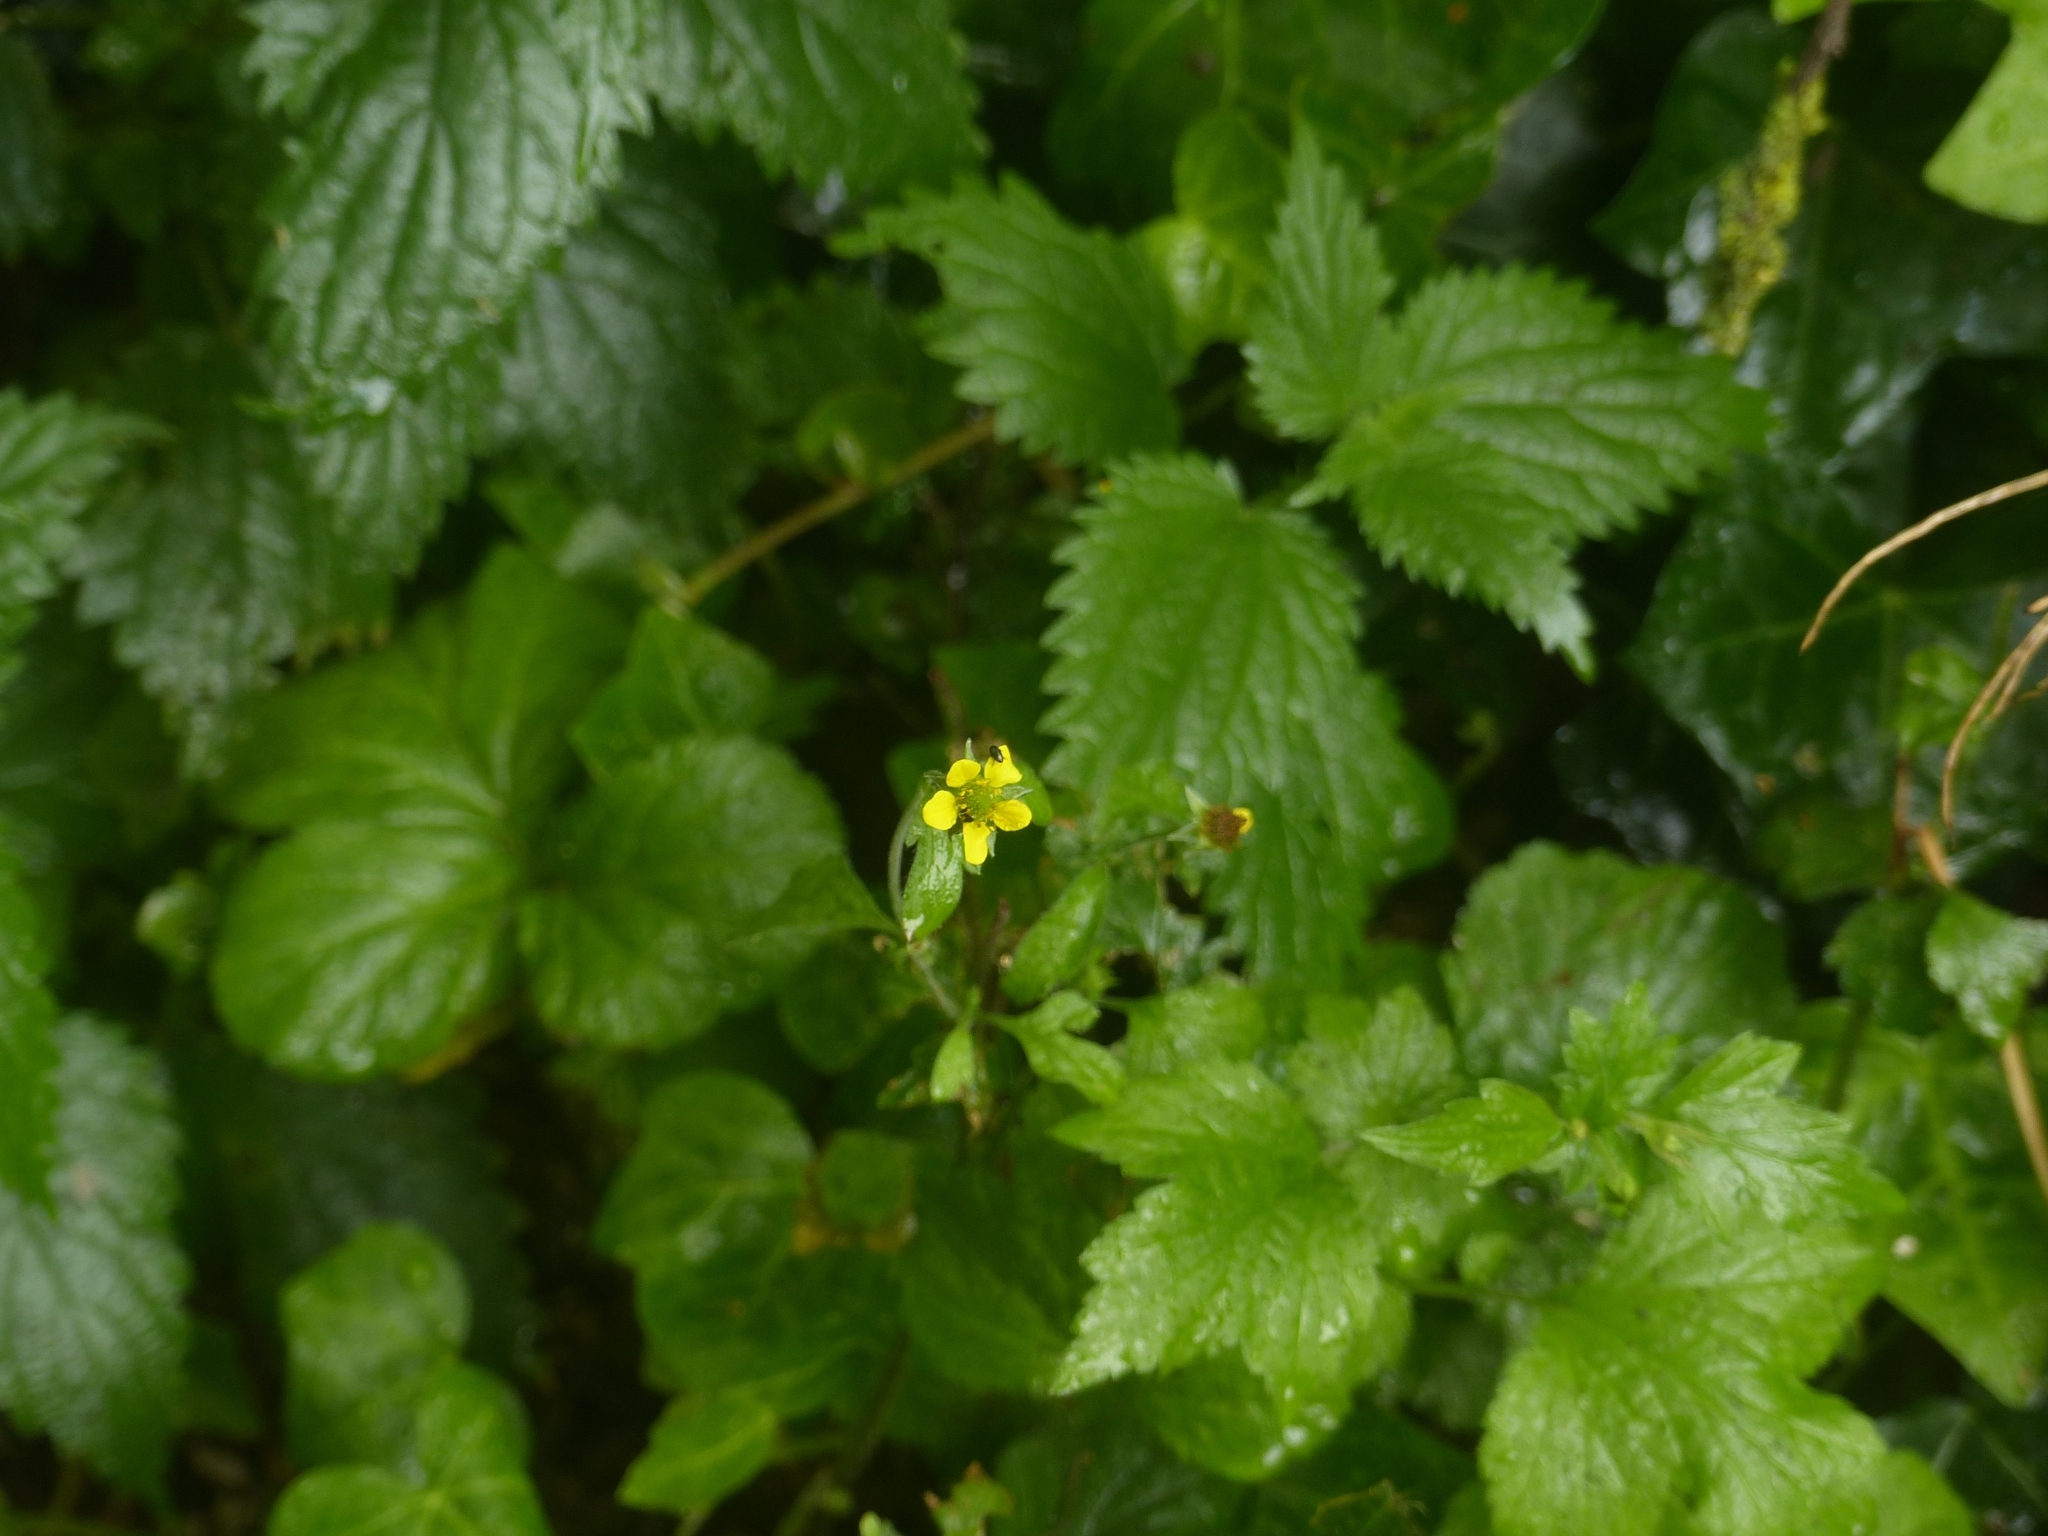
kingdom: Plantae
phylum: Tracheophyta
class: Magnoliopsida
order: Rosales
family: Rosaceae
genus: Geum
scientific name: Geum urbanum
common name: Wood avens
